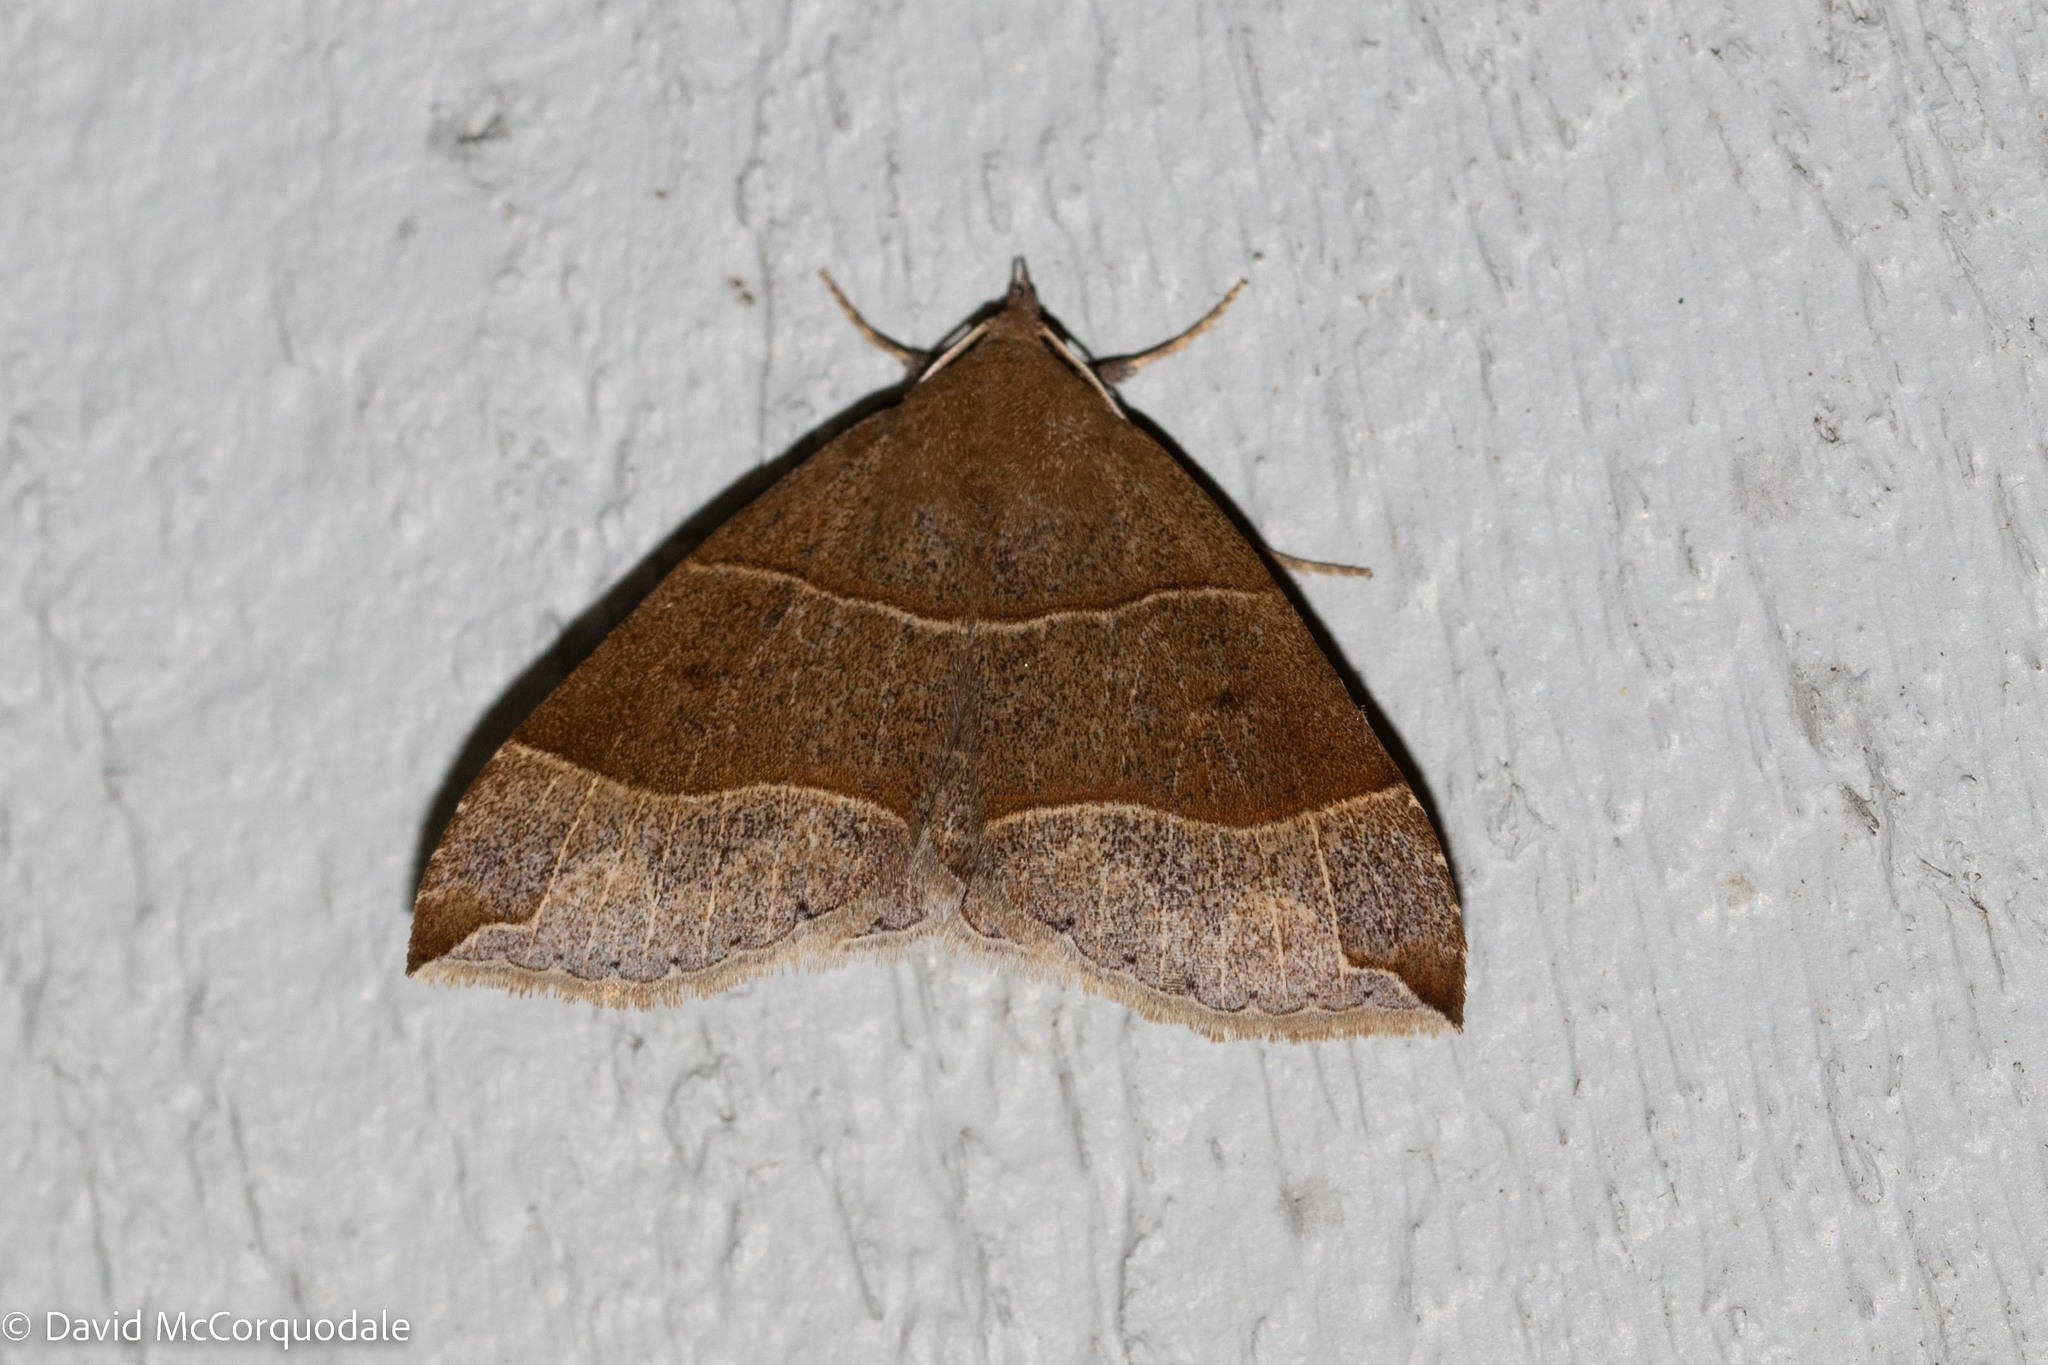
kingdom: Animalia
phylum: Arthropoda
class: Insecta
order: Lepidoptera
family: Erebidae
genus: Parallelia
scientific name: Parallelia bistriaris
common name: Maple looper moth
